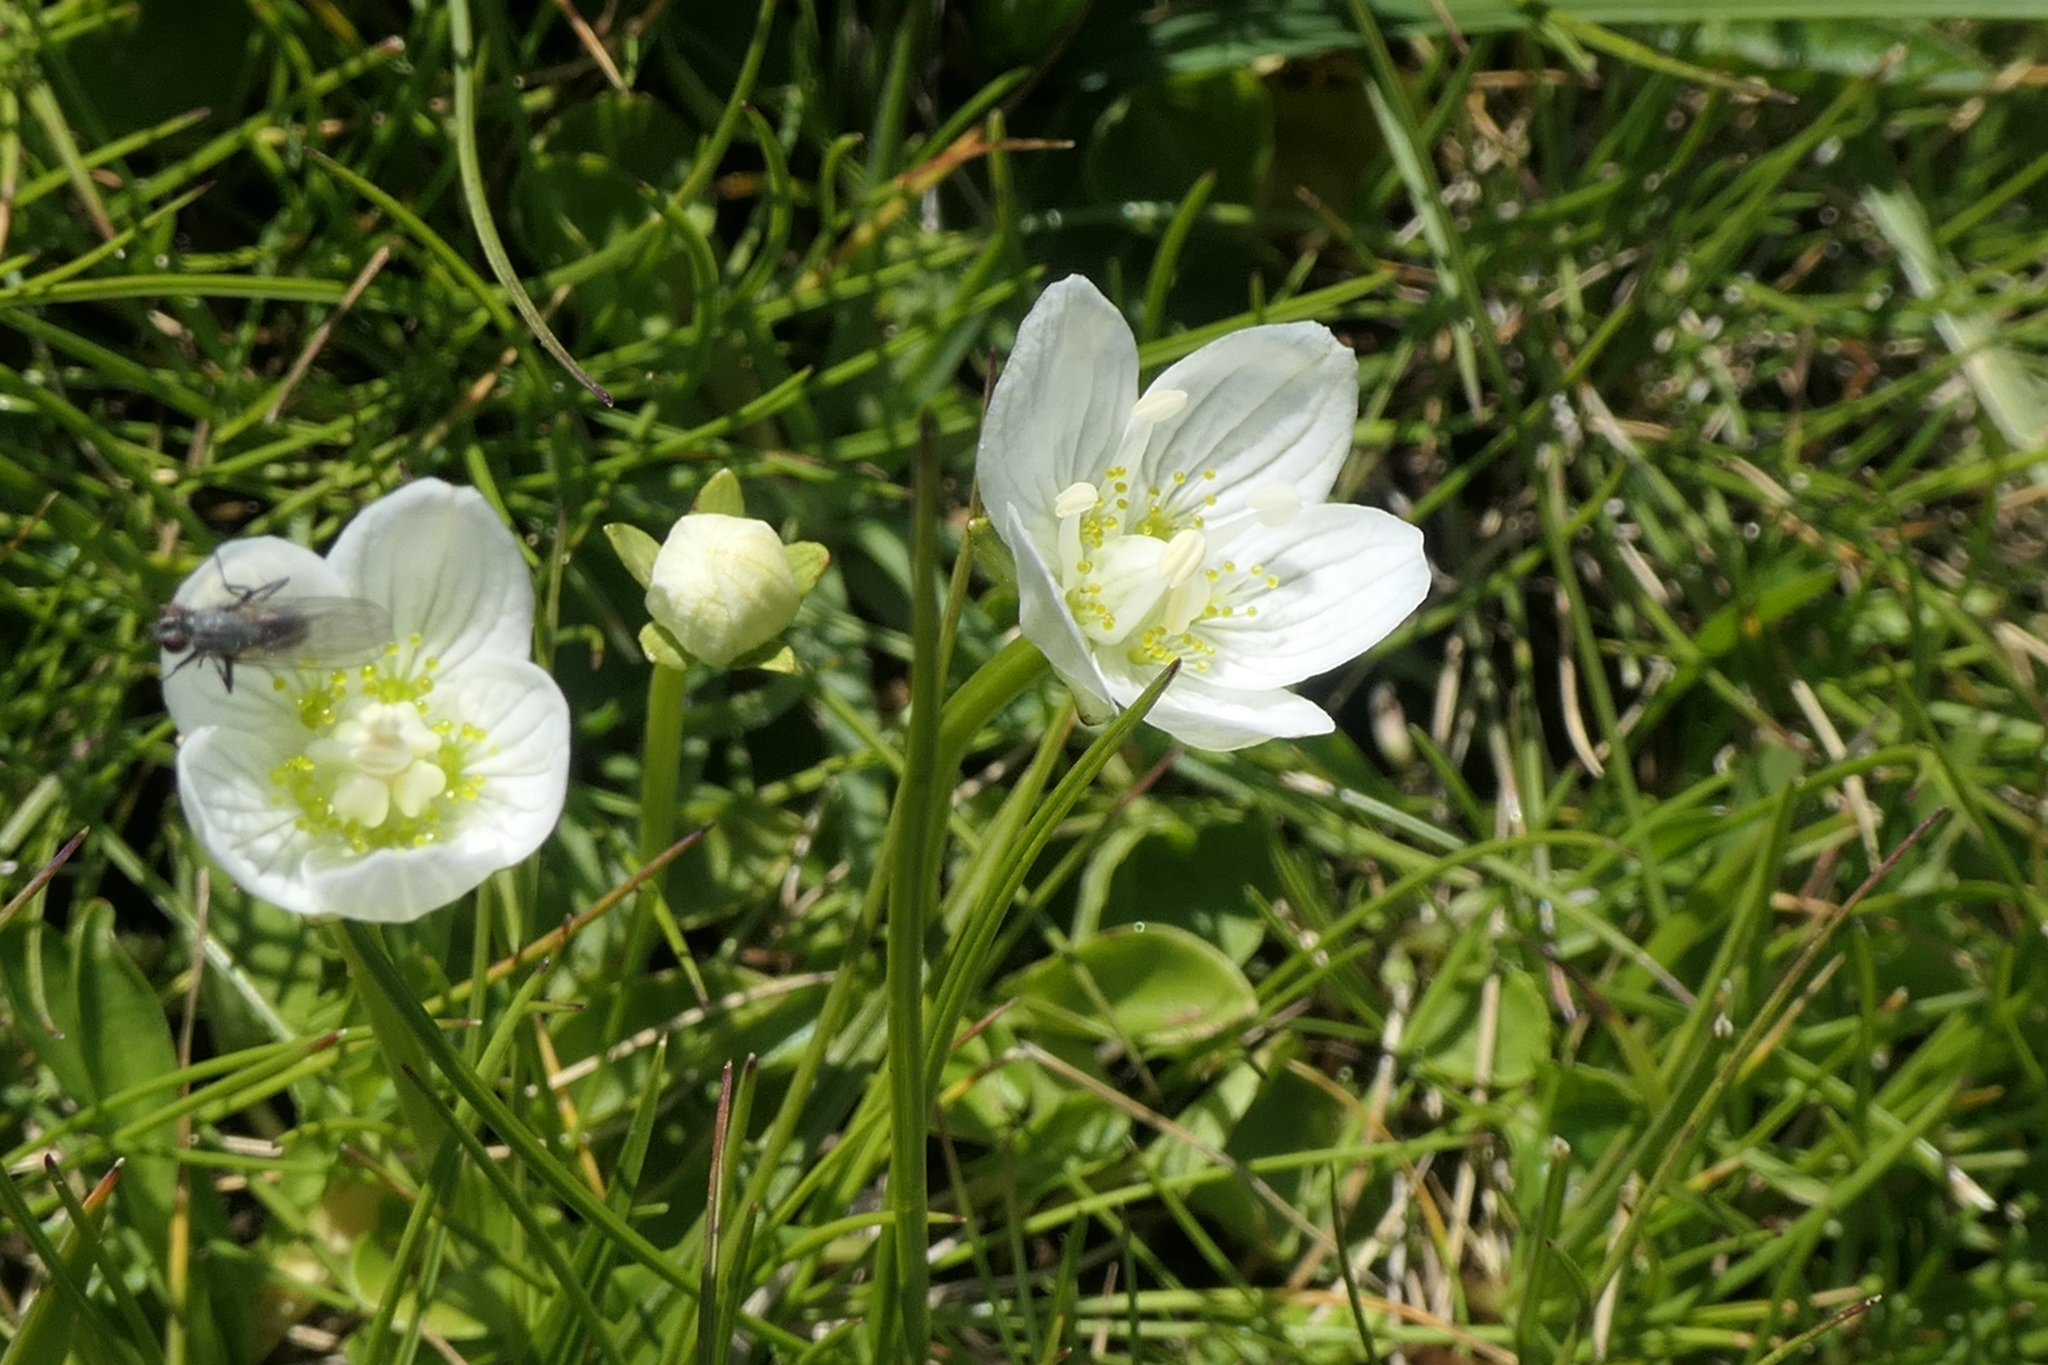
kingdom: Plantae
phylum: Tracheophyta
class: Magnoliopsida
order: Celastrales
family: Parnassiaceae
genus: Parnassia
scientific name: Parnassia palustris
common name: Grass-of-parnassus
